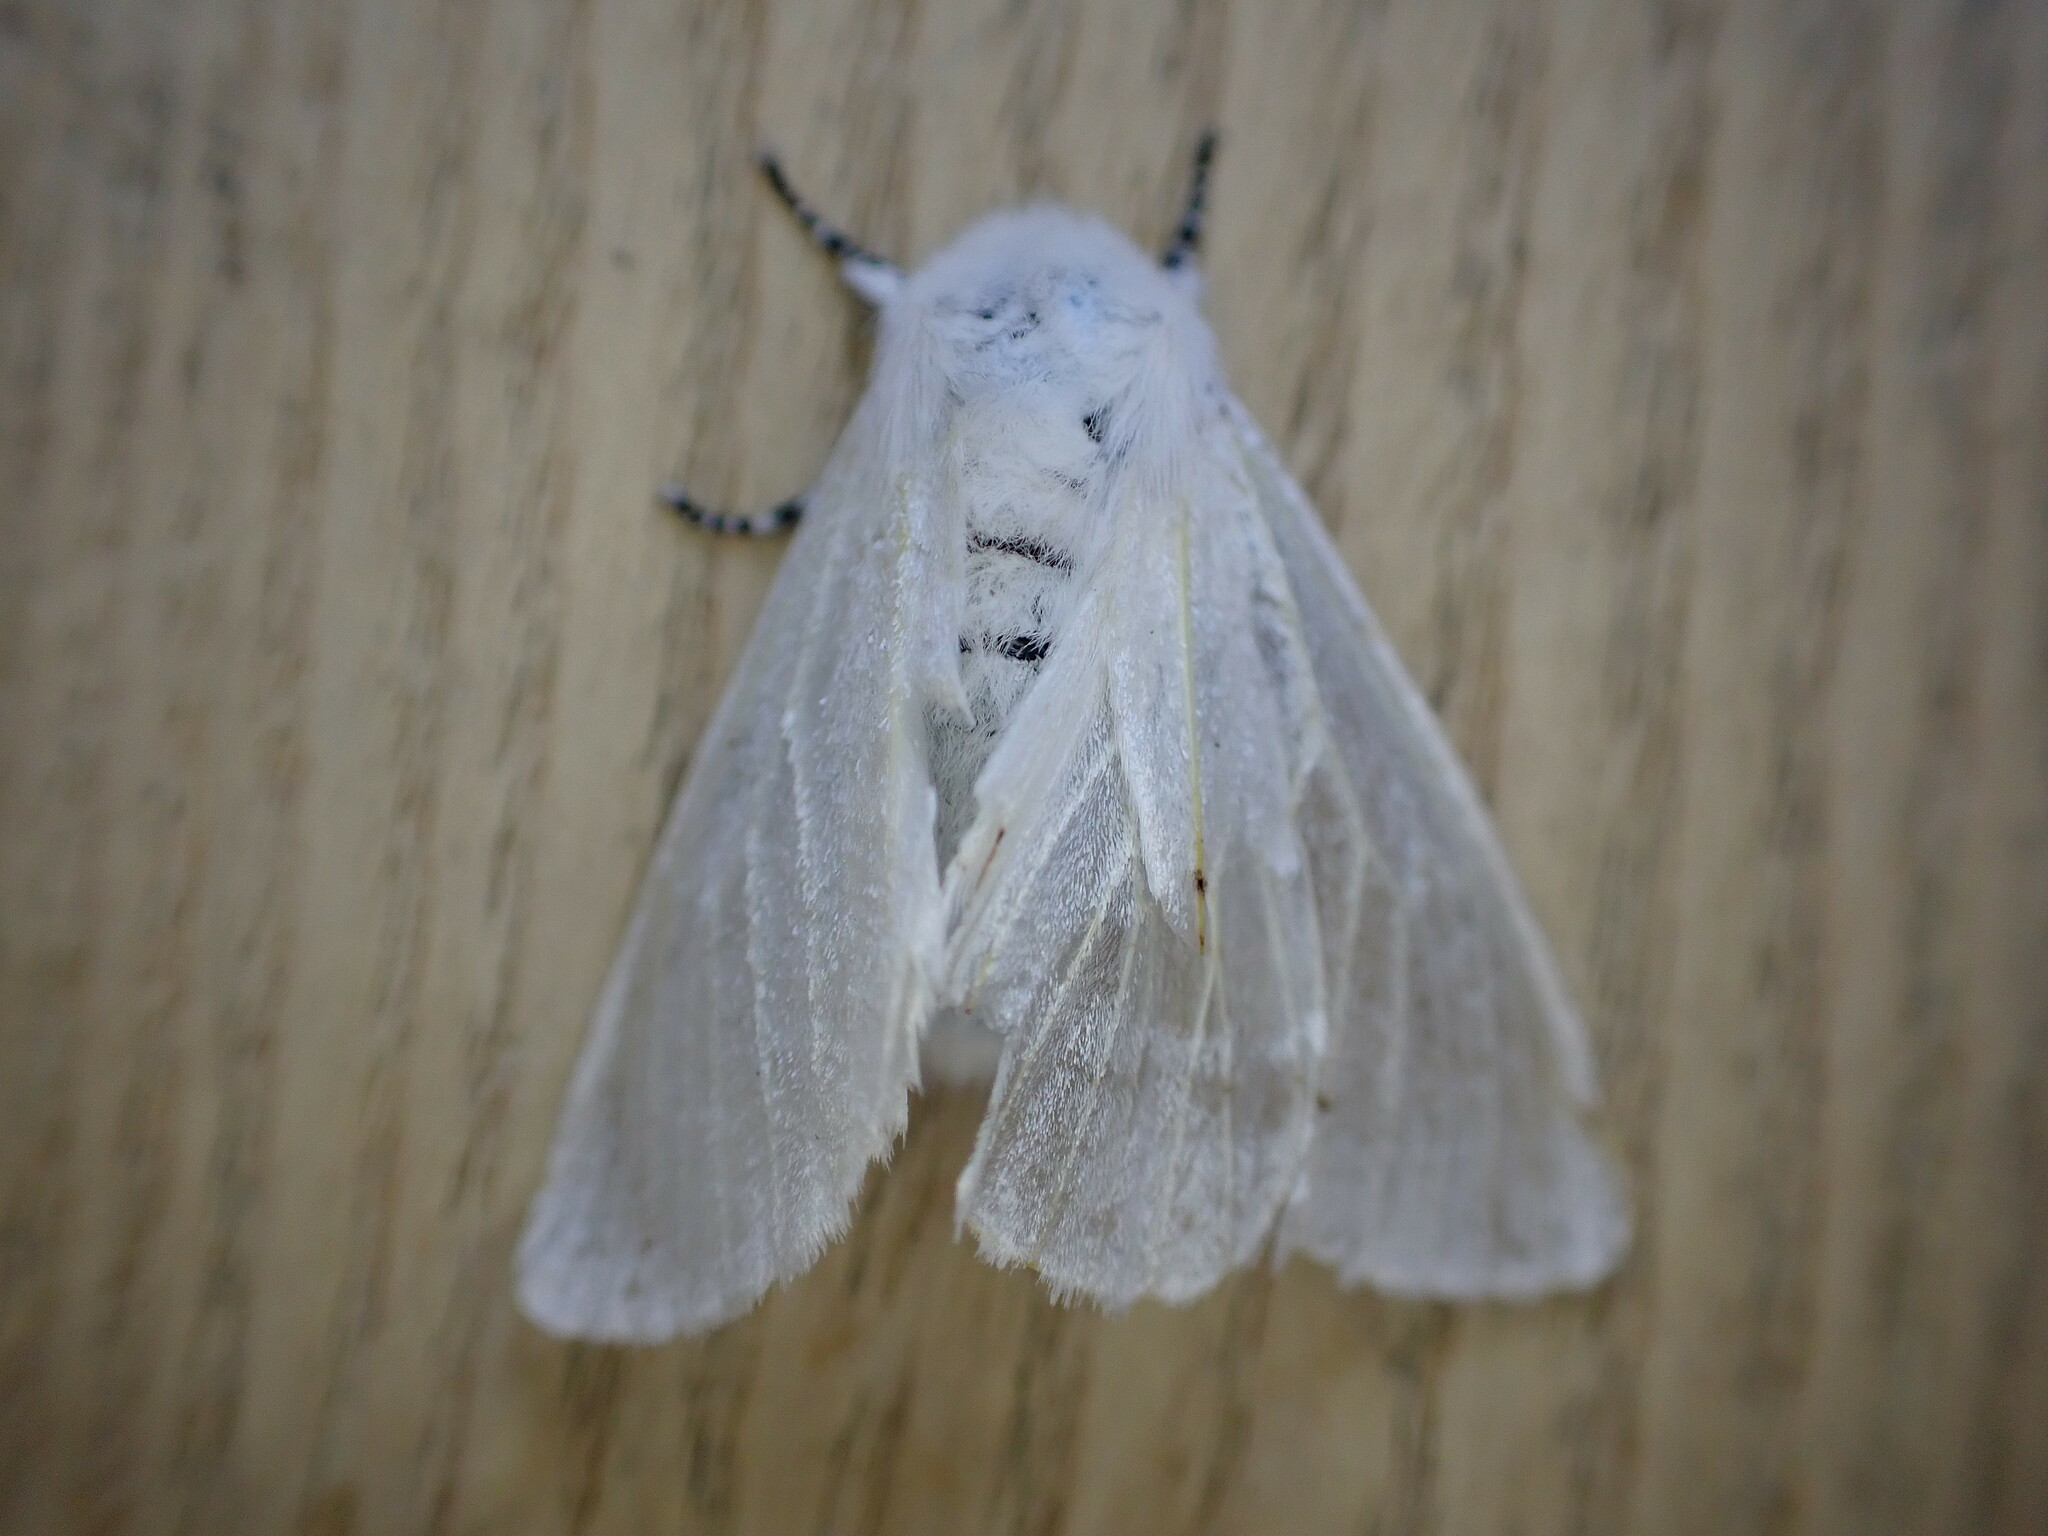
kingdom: Animalia
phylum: Arthropoda
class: Insecta
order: Lepidoptera
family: Erebidae
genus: Leucoma
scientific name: Leucoma salicis
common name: White satin moth
